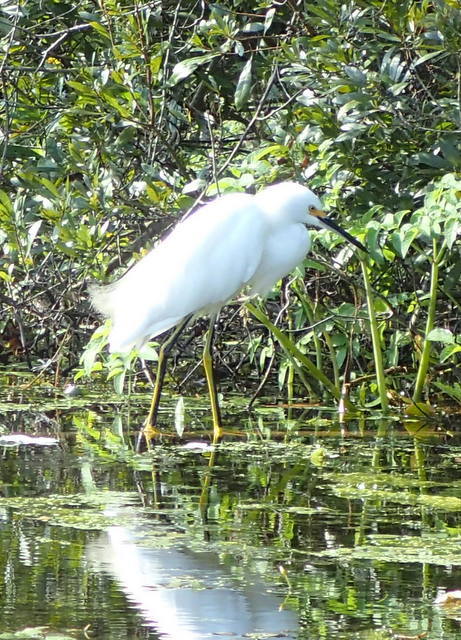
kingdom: Animalia
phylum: Chordata
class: Aves
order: Pelecaniformes
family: Ardeidae
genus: Egretta
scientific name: Egretta thula
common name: Snowy egret
